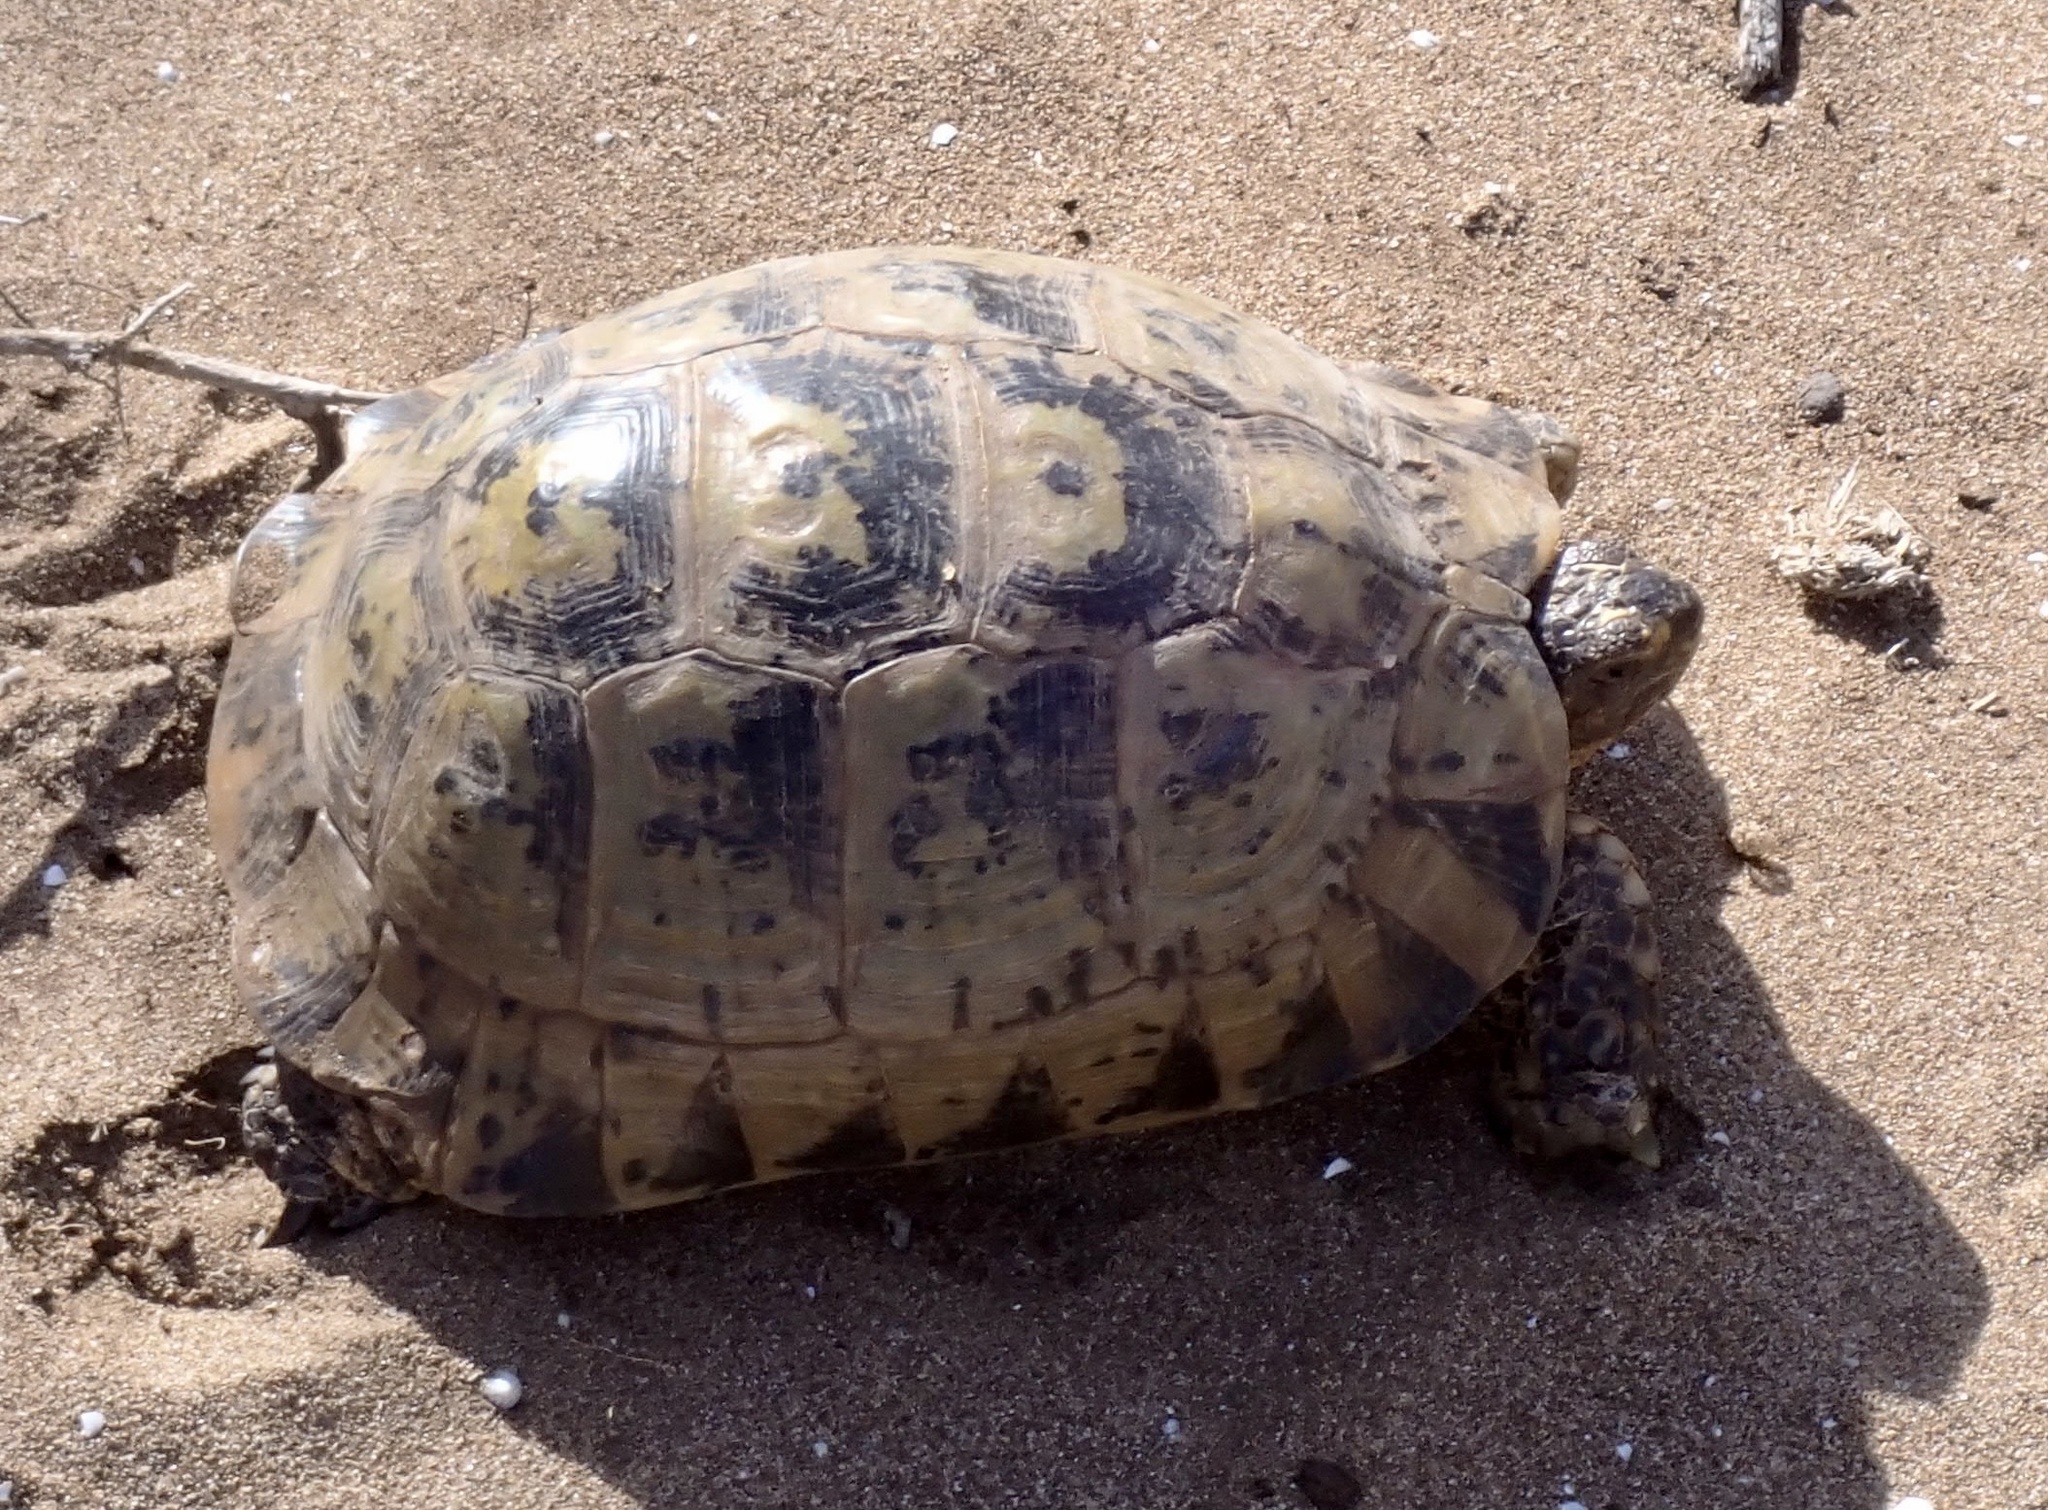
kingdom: Animalia
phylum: Chordata
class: Testudines
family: Testudinidae
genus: Testudo
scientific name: Testudo graeca
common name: Common tortoise
